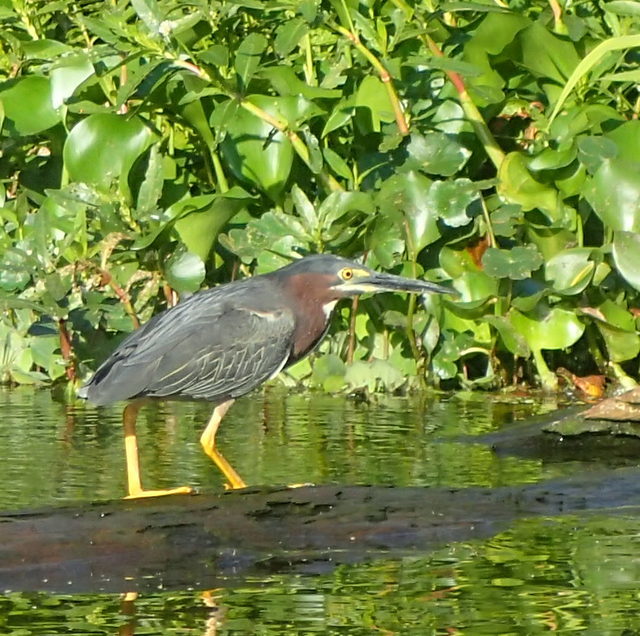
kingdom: Animalia
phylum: Chordata
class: Aves
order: Pelecaniformes
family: Ardeidae
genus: Butorides
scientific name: Butorides virescens
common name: Green heron
